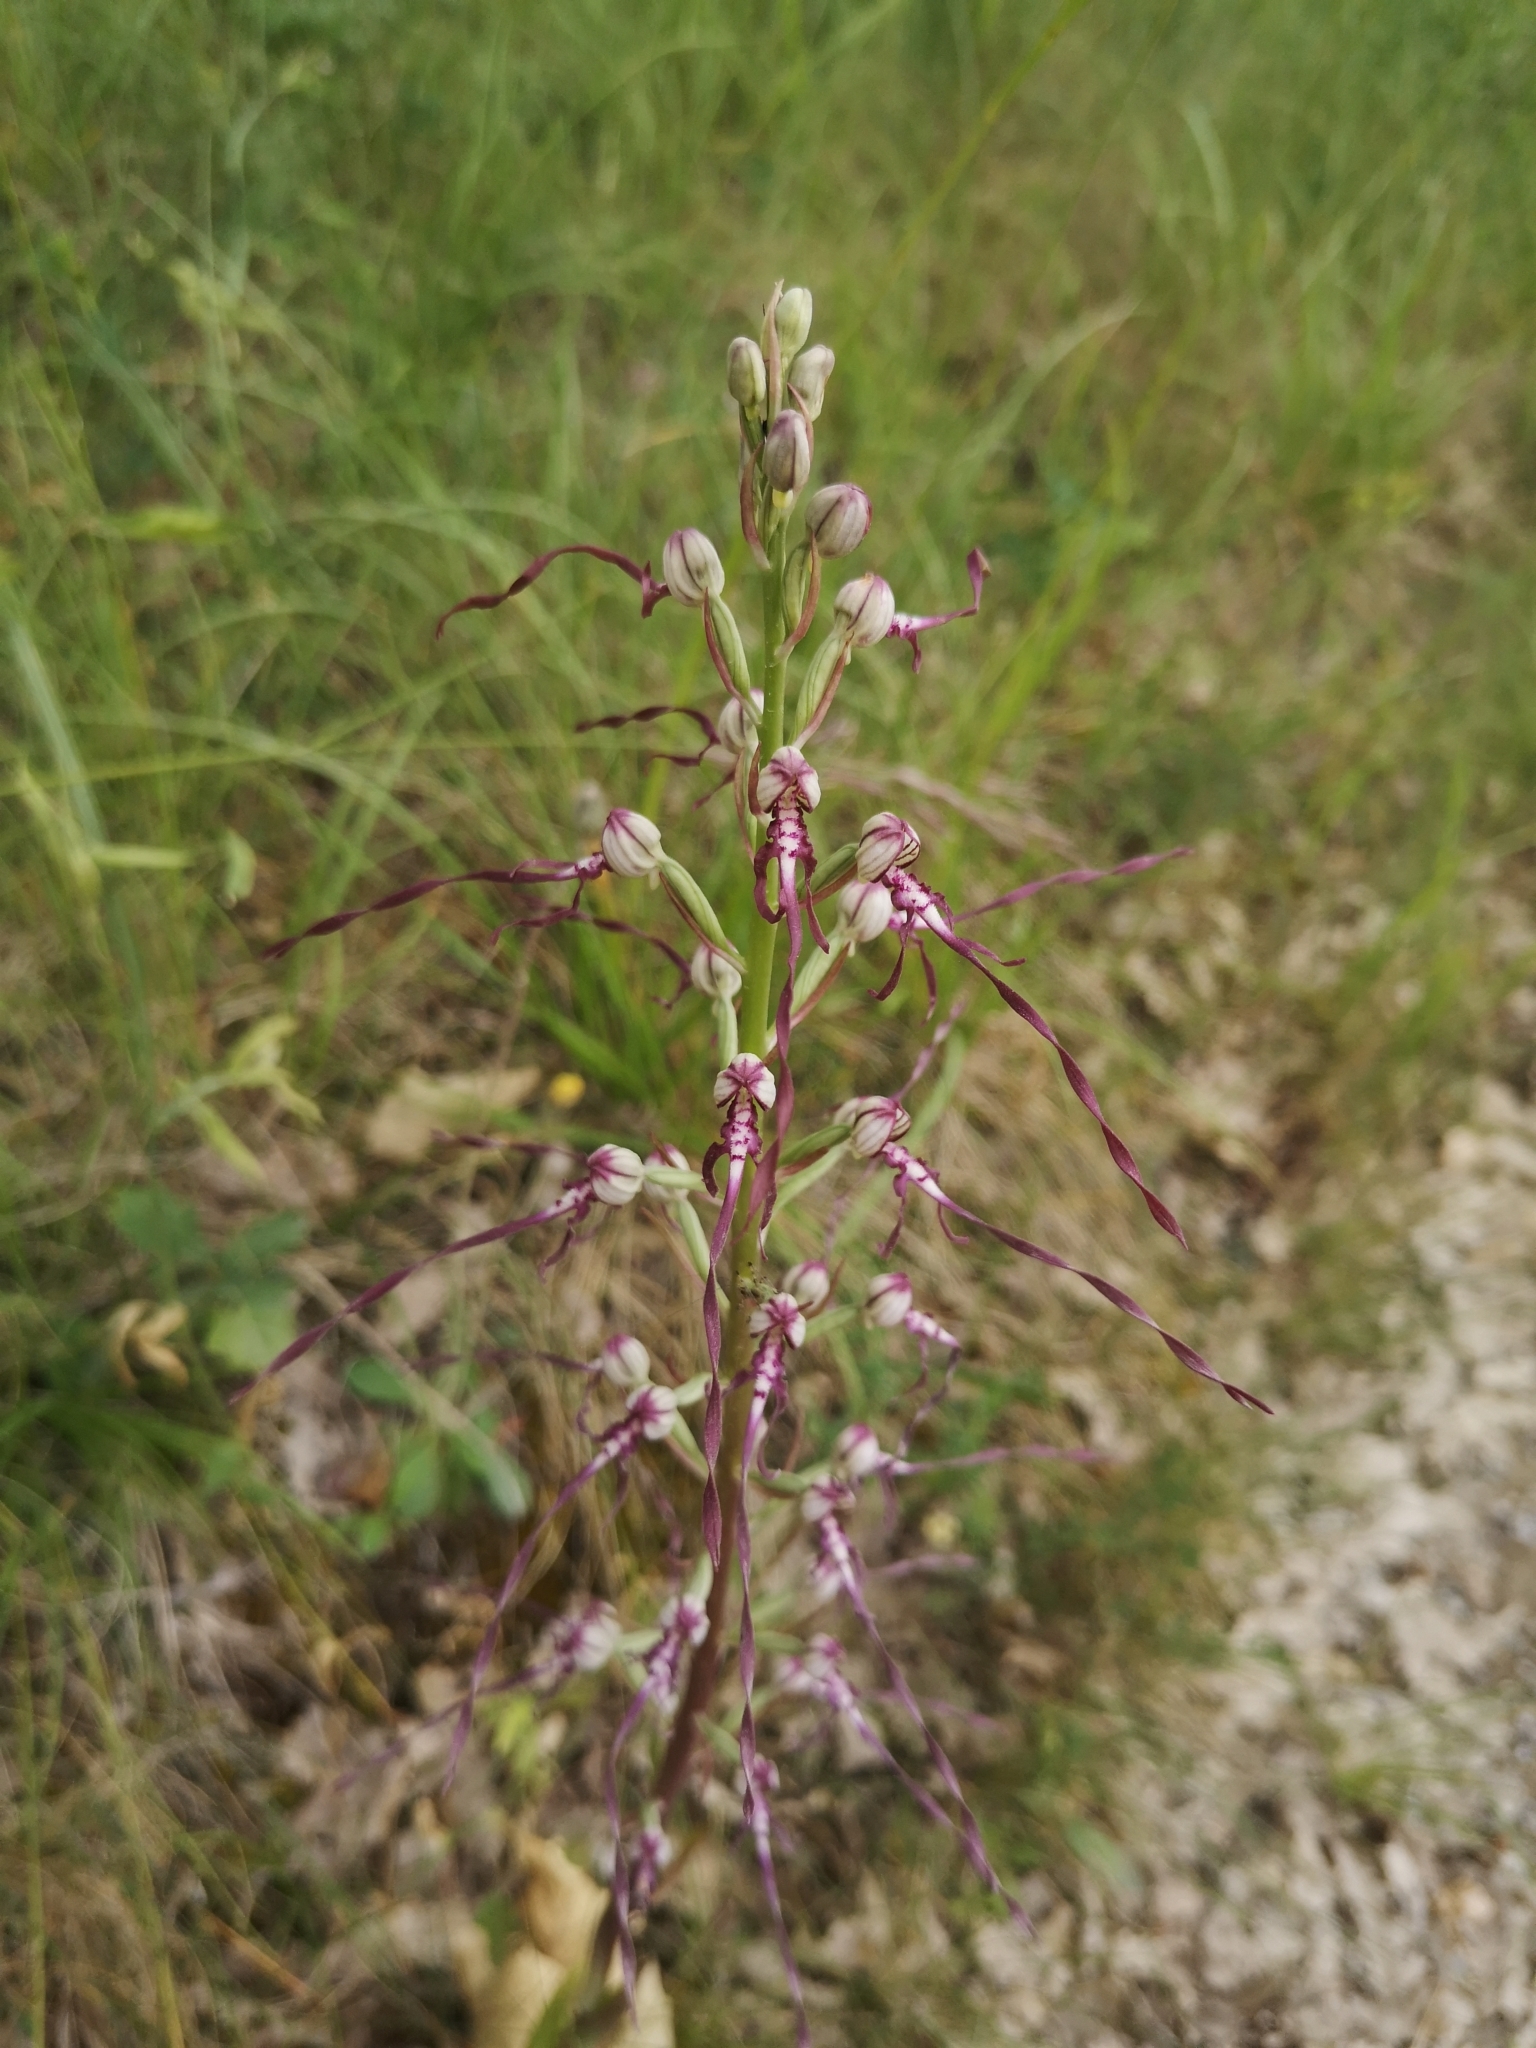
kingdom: Plantae
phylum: Tracheophyta
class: Liliopsida
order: Asparagales
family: Orchidaceae
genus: Himantoglossum
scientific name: Himantoglossum adriaticum
